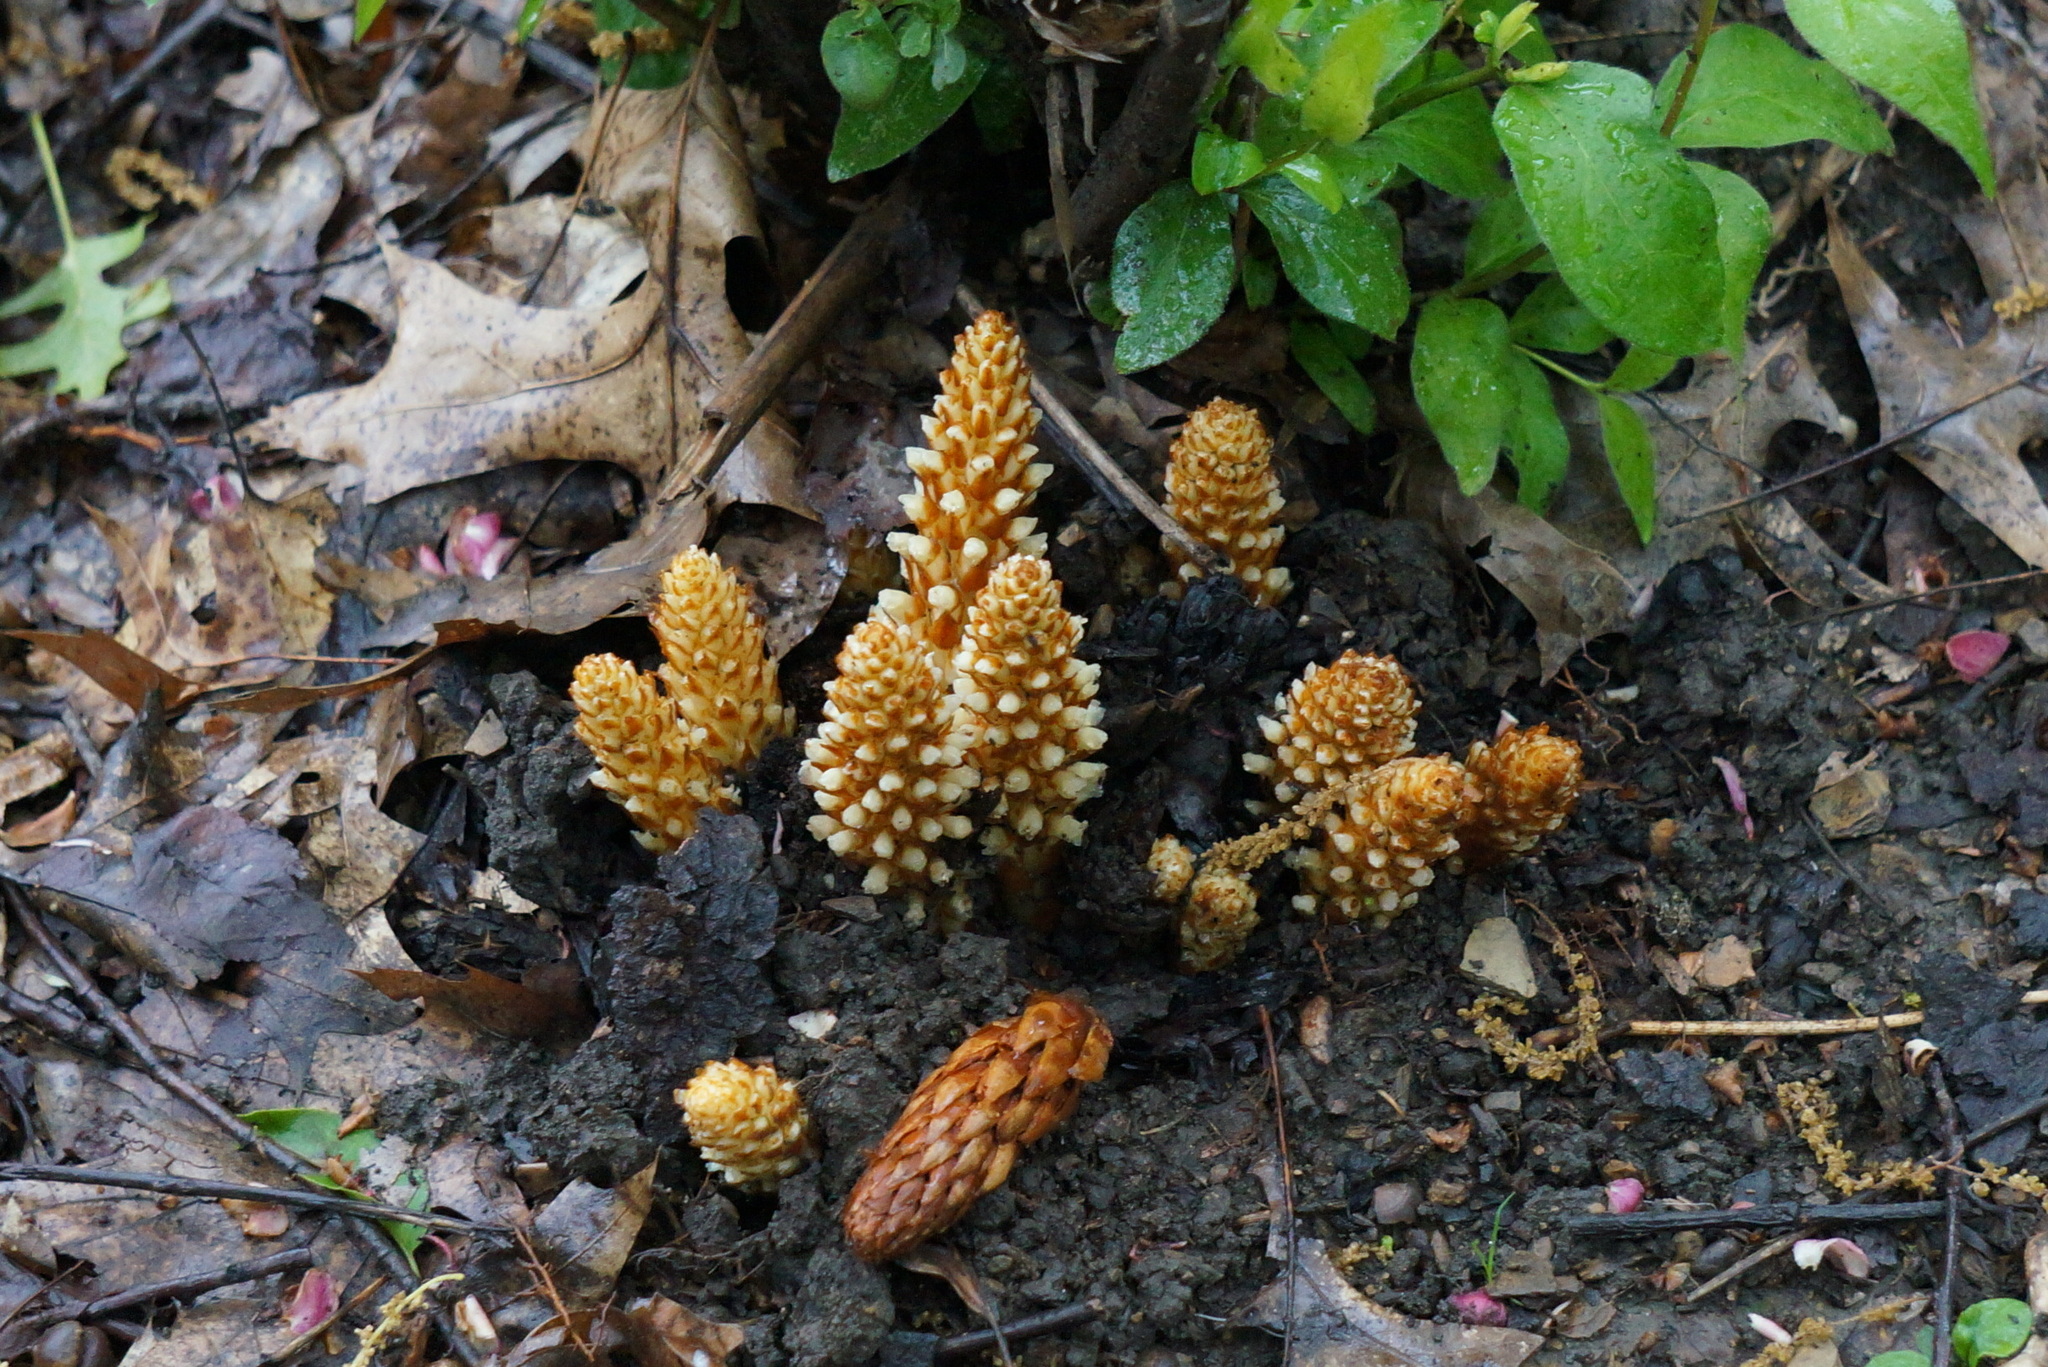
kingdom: Plantae
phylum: Tracheophyta
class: Magnoliopsida
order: Lamiales
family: Orobanchaceae
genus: Conopholis
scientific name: Conopholis americana
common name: American cancer-root
